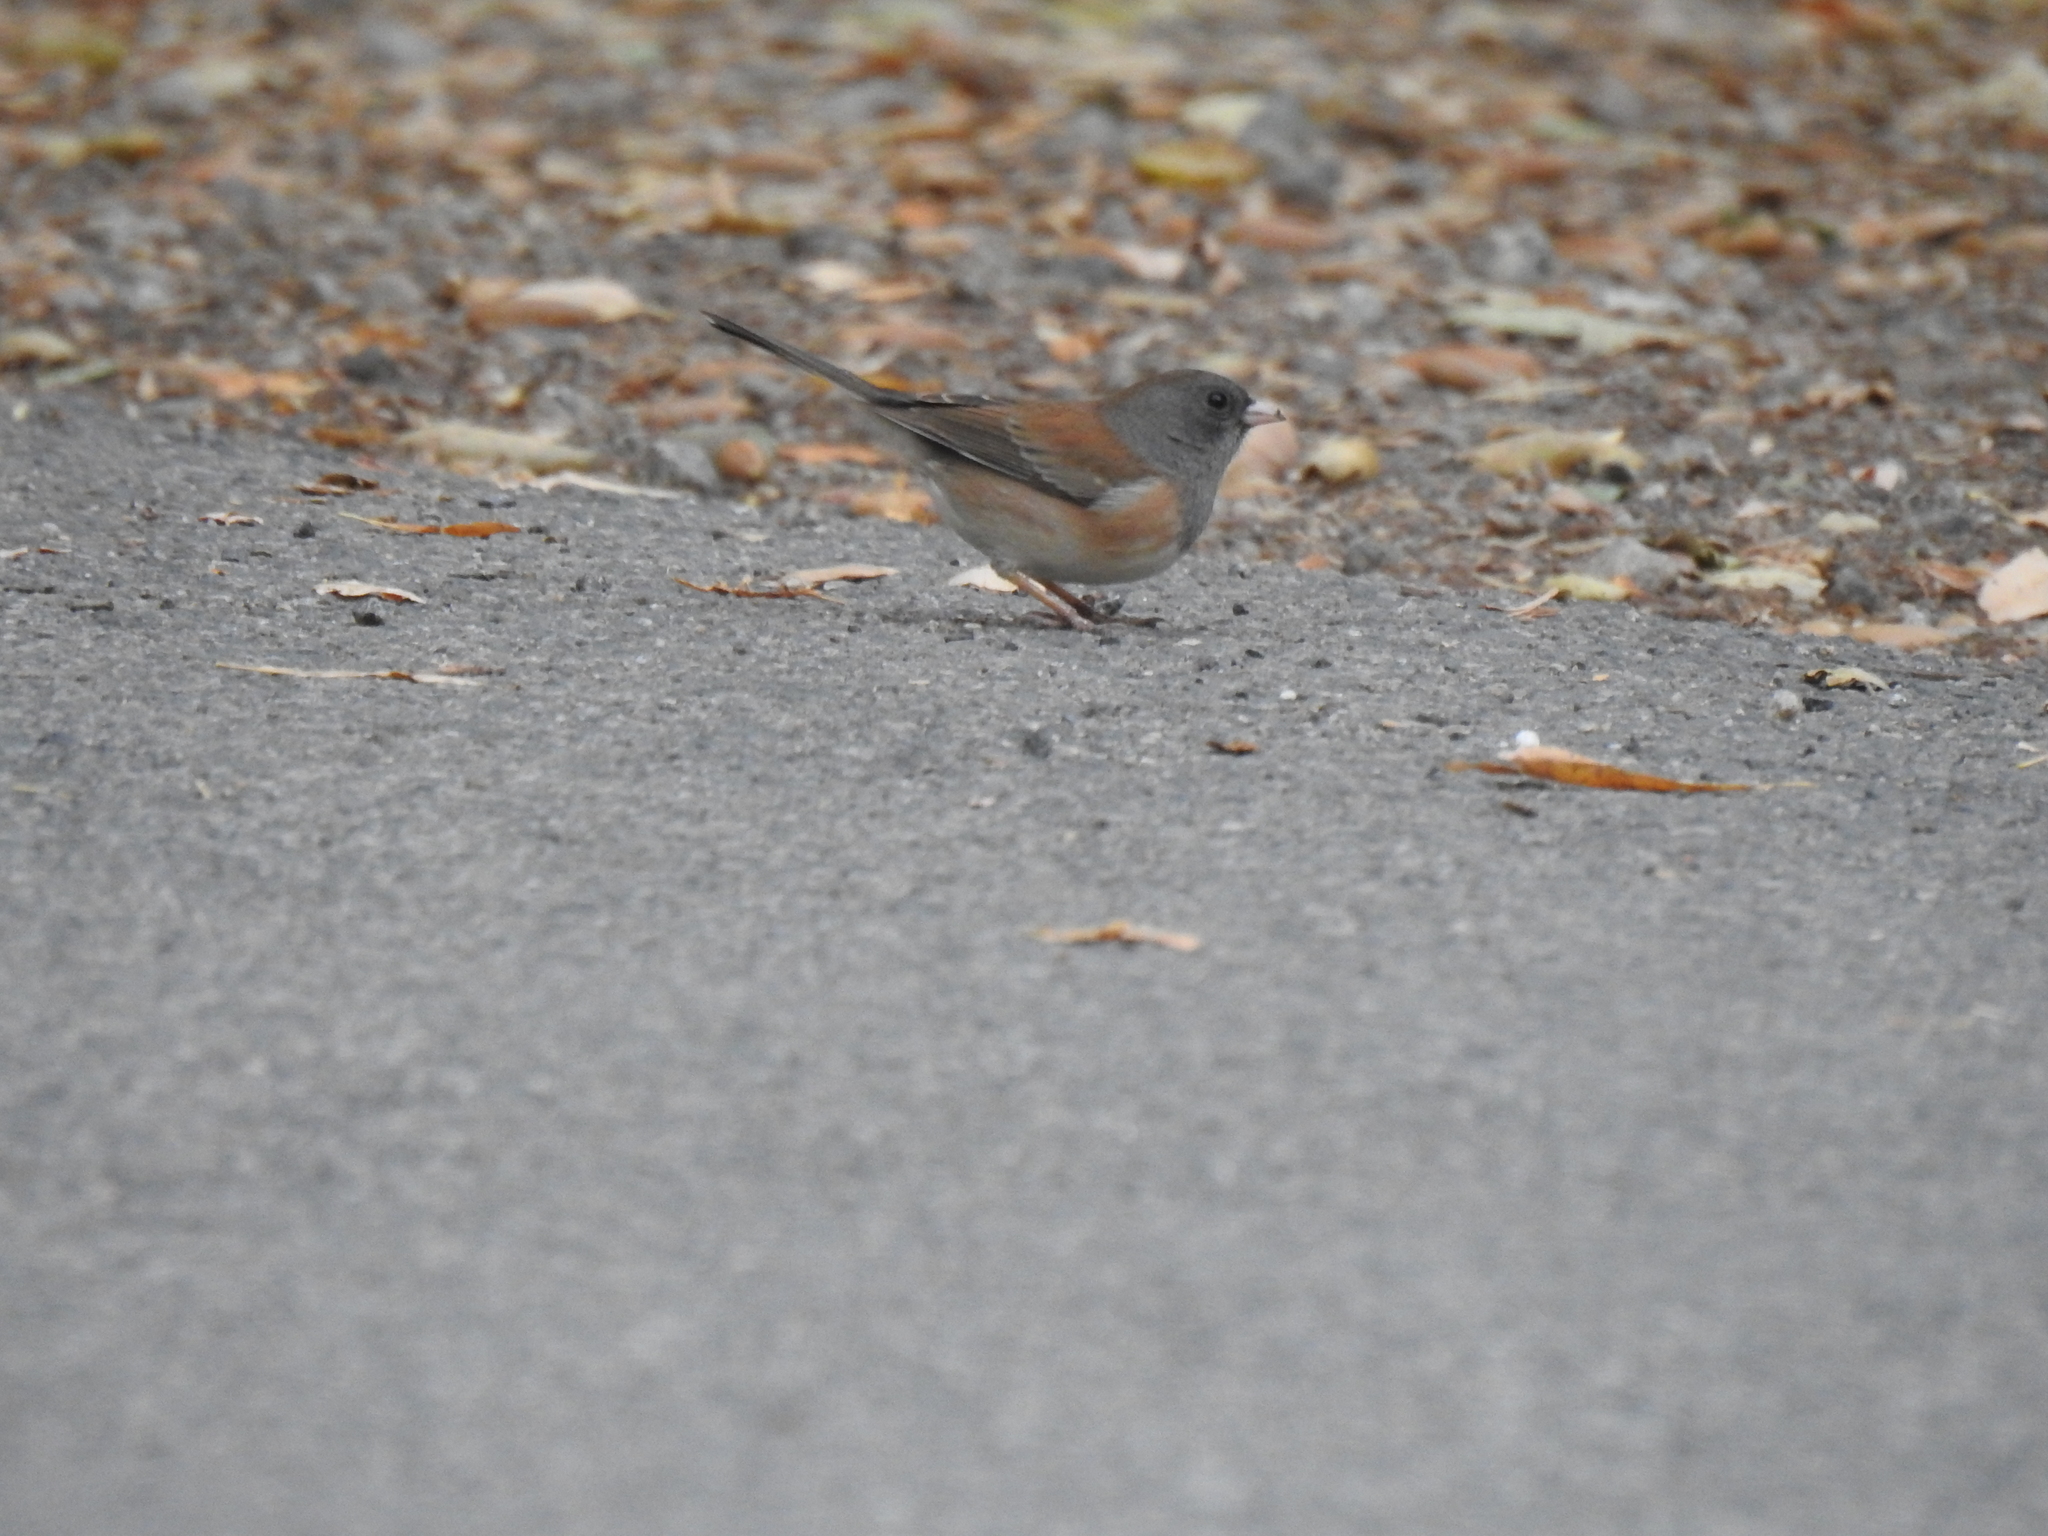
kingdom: Animalia
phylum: Chordata
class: Aves
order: Passeriformes
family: Passerellidae
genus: Junco
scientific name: Junco hyemalis
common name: Dark-eyed junco
